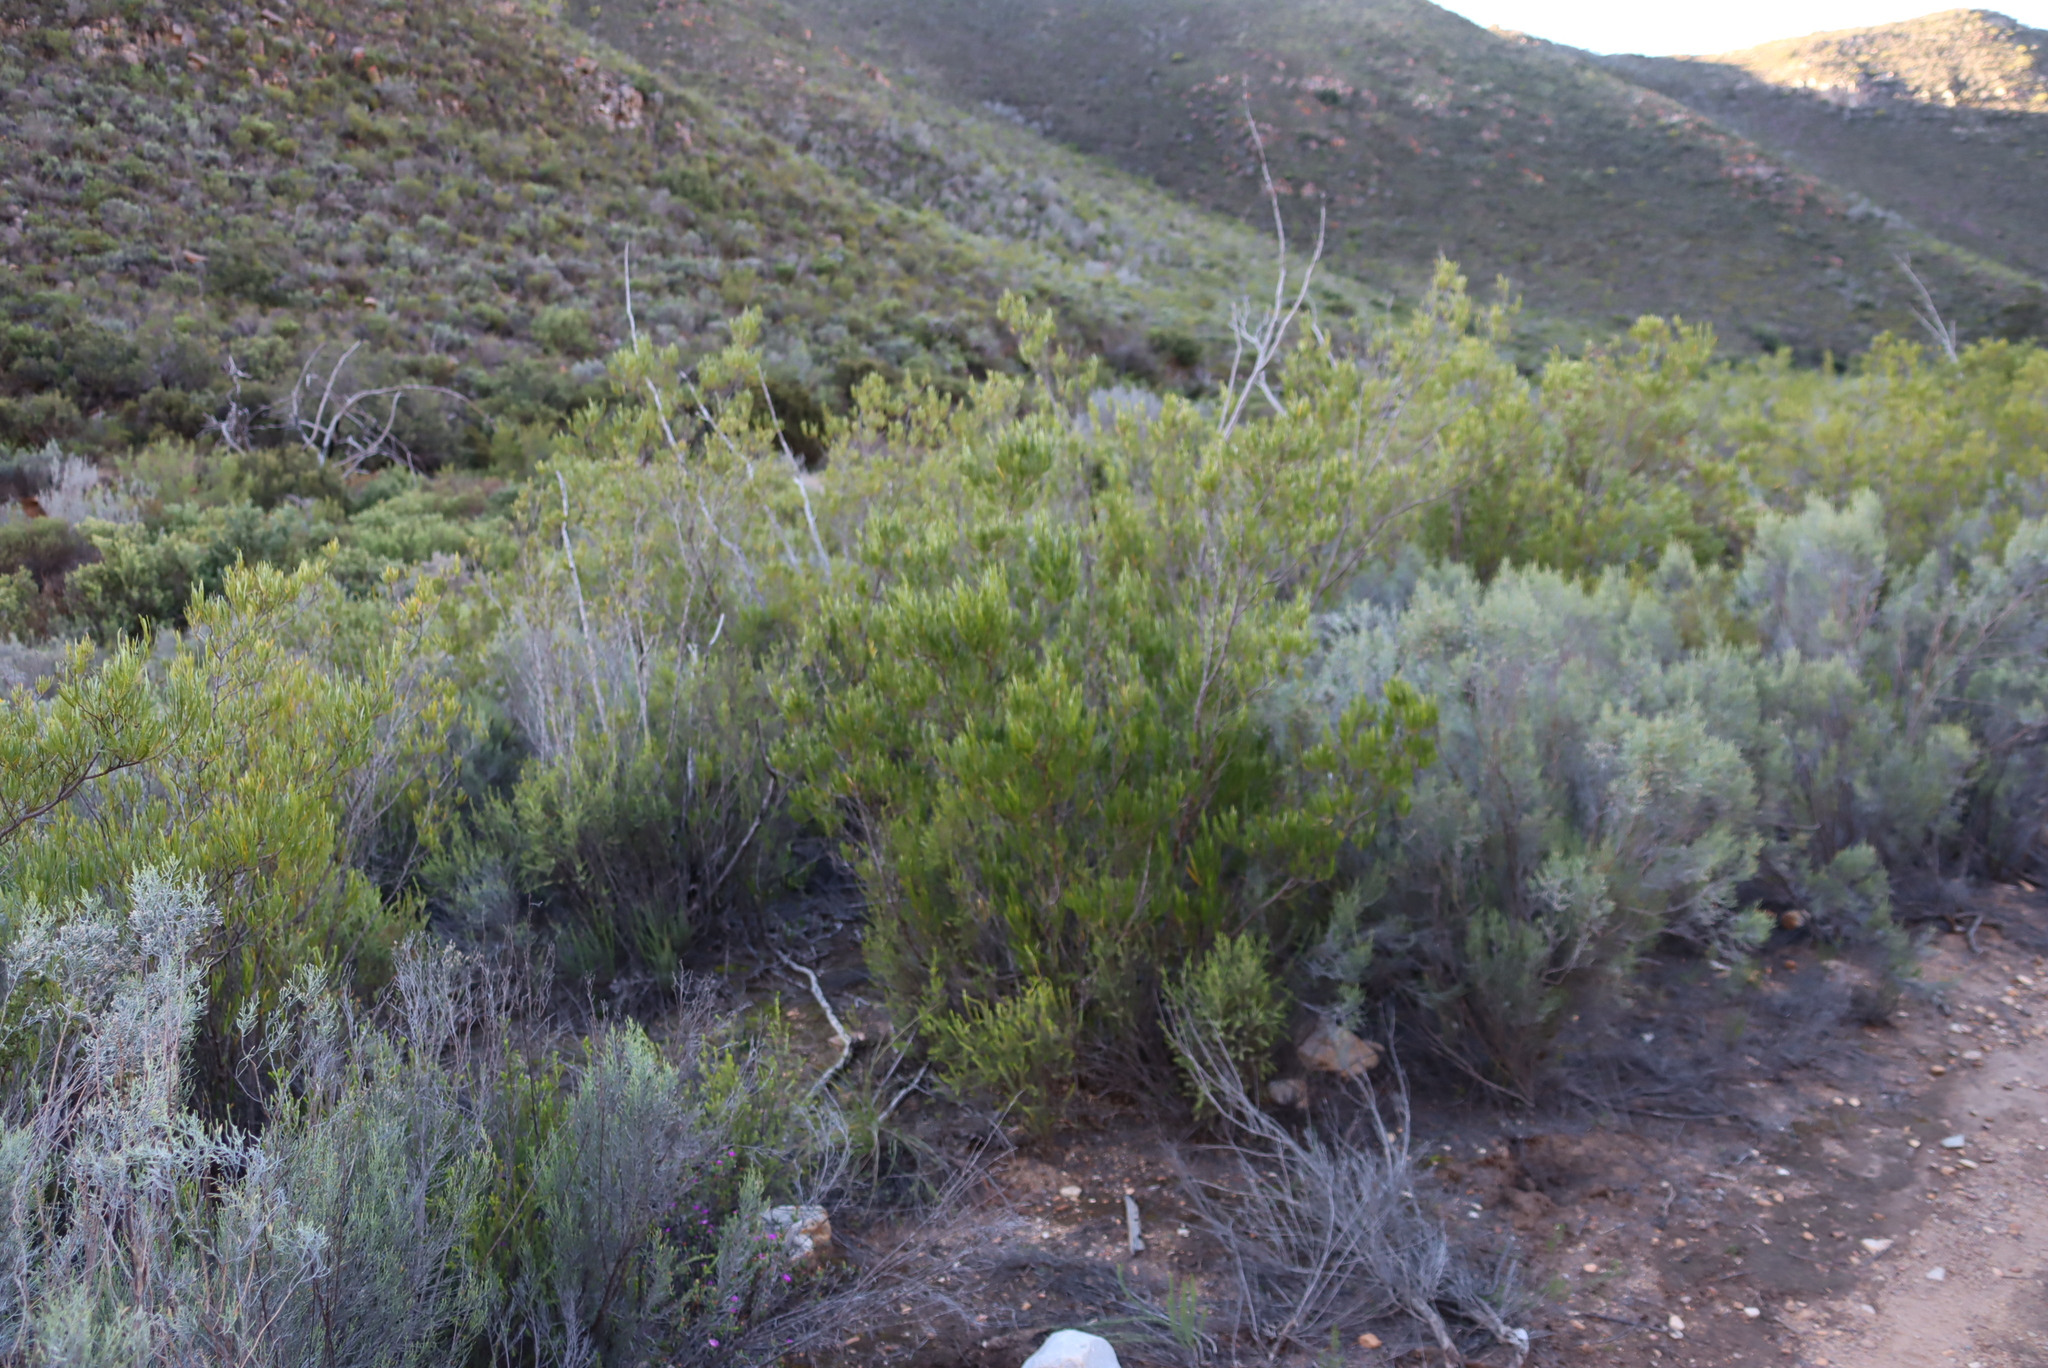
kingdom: Plantae
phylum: Tracheophyta
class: Magnoliopsida
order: Sapindales
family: Sapindaceae
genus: Dodonaea
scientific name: Dodonaea viscosa
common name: Hopbush
